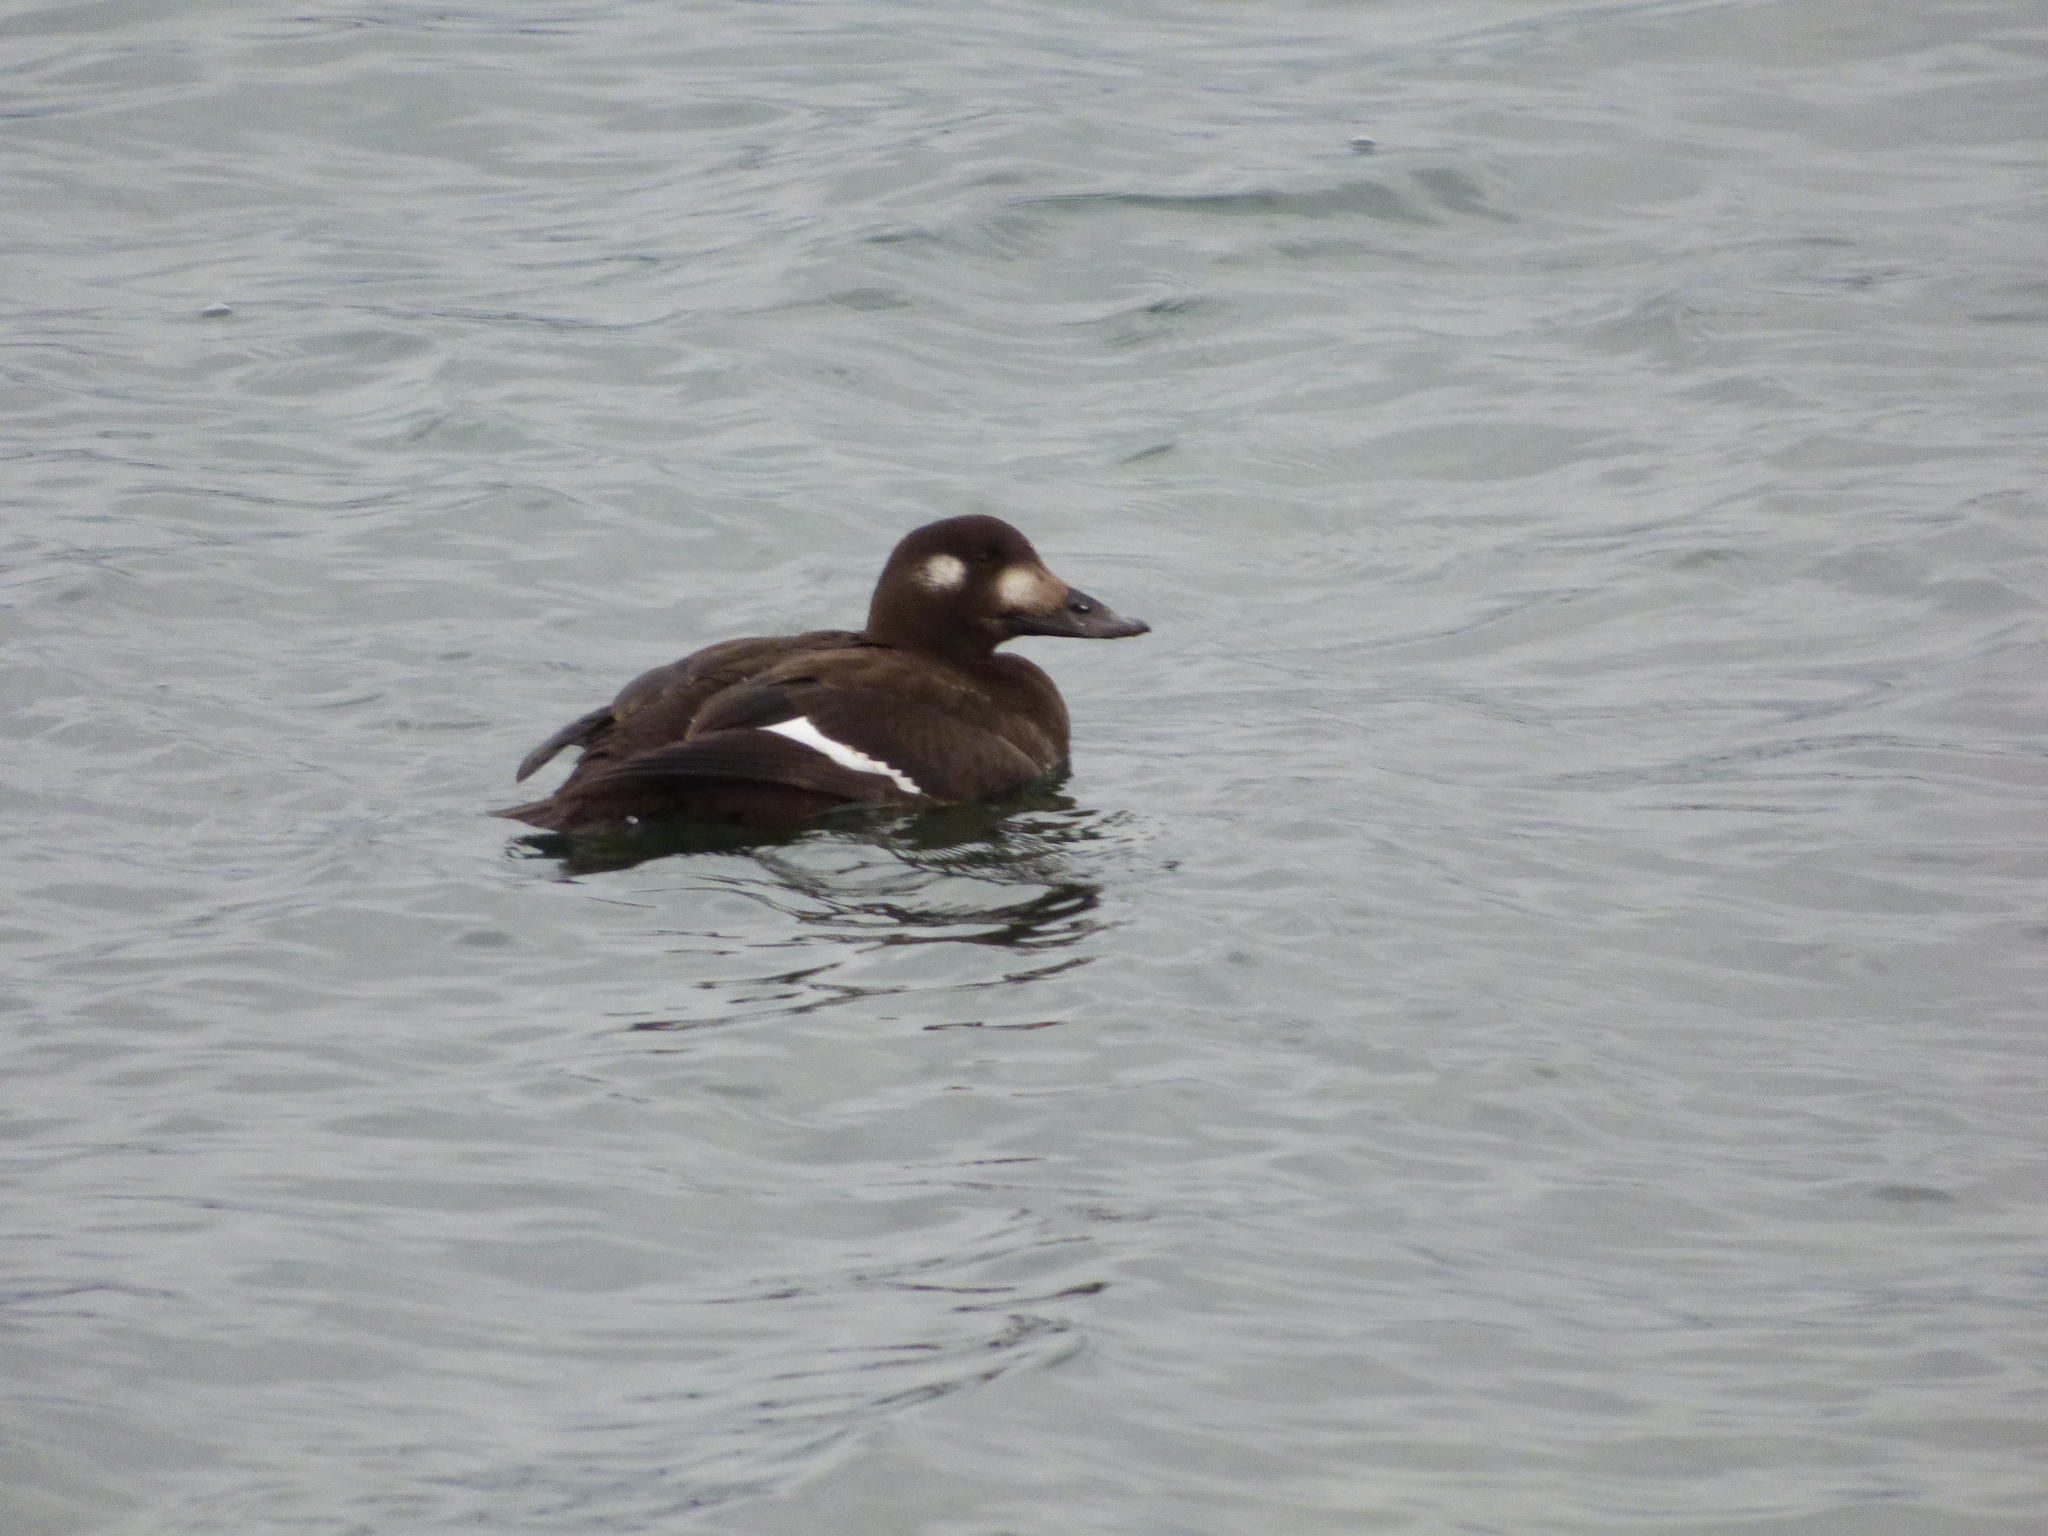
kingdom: Animalia
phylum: Chordata
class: Aves
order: Anseriformes
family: Anatidae
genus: Melanitta
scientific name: Melanitta deglandi
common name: White-winged scoter
